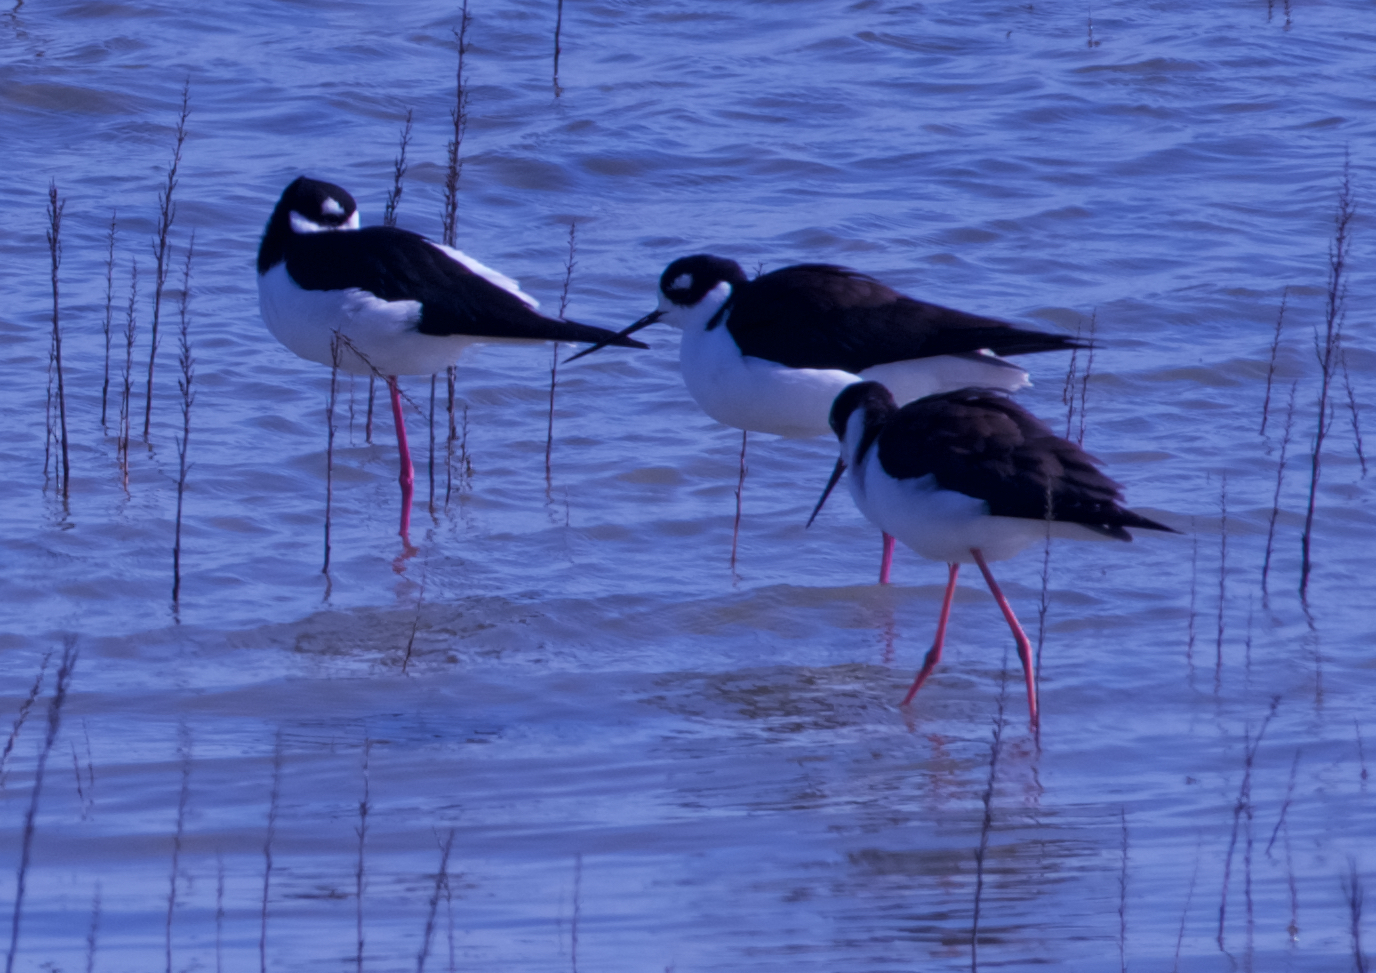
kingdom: Animalia
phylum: Chordata
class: Aves
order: Charadriiformes
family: Recurvirostridae
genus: Himantopus
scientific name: Himantopus mexicanus
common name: Black-necked stilt
